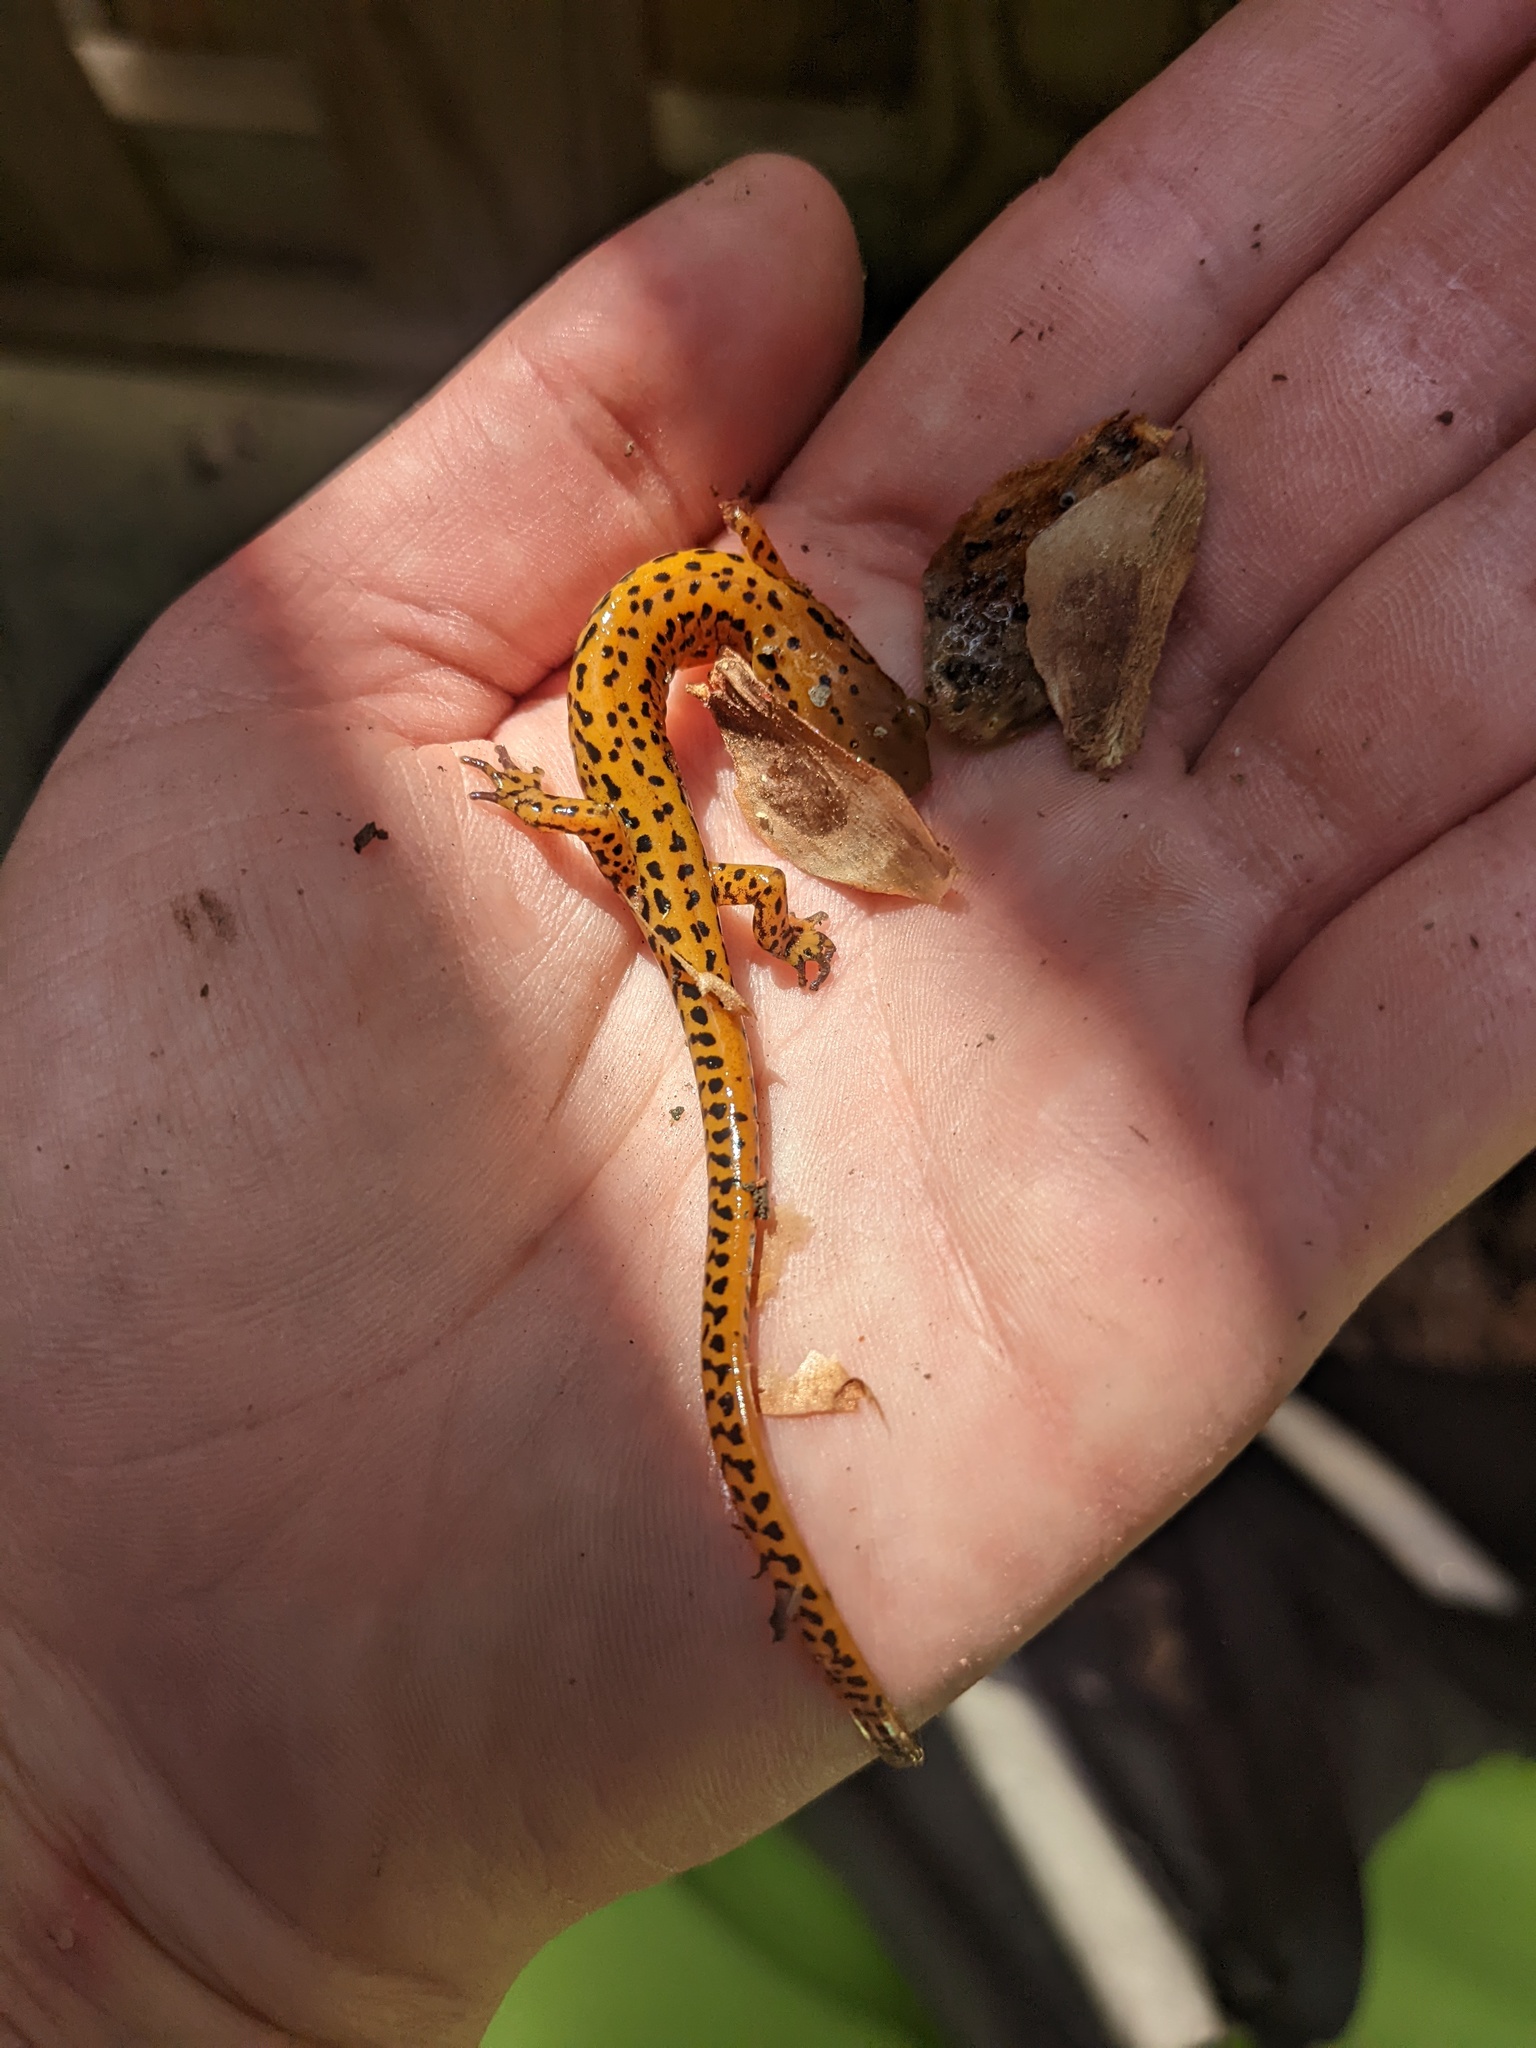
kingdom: Animalia
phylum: Chordata
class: Amphibia
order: Caudata
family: Plethodontidae
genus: Eurycea
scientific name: Eurycea longicauda
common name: Long-tailed salamander
